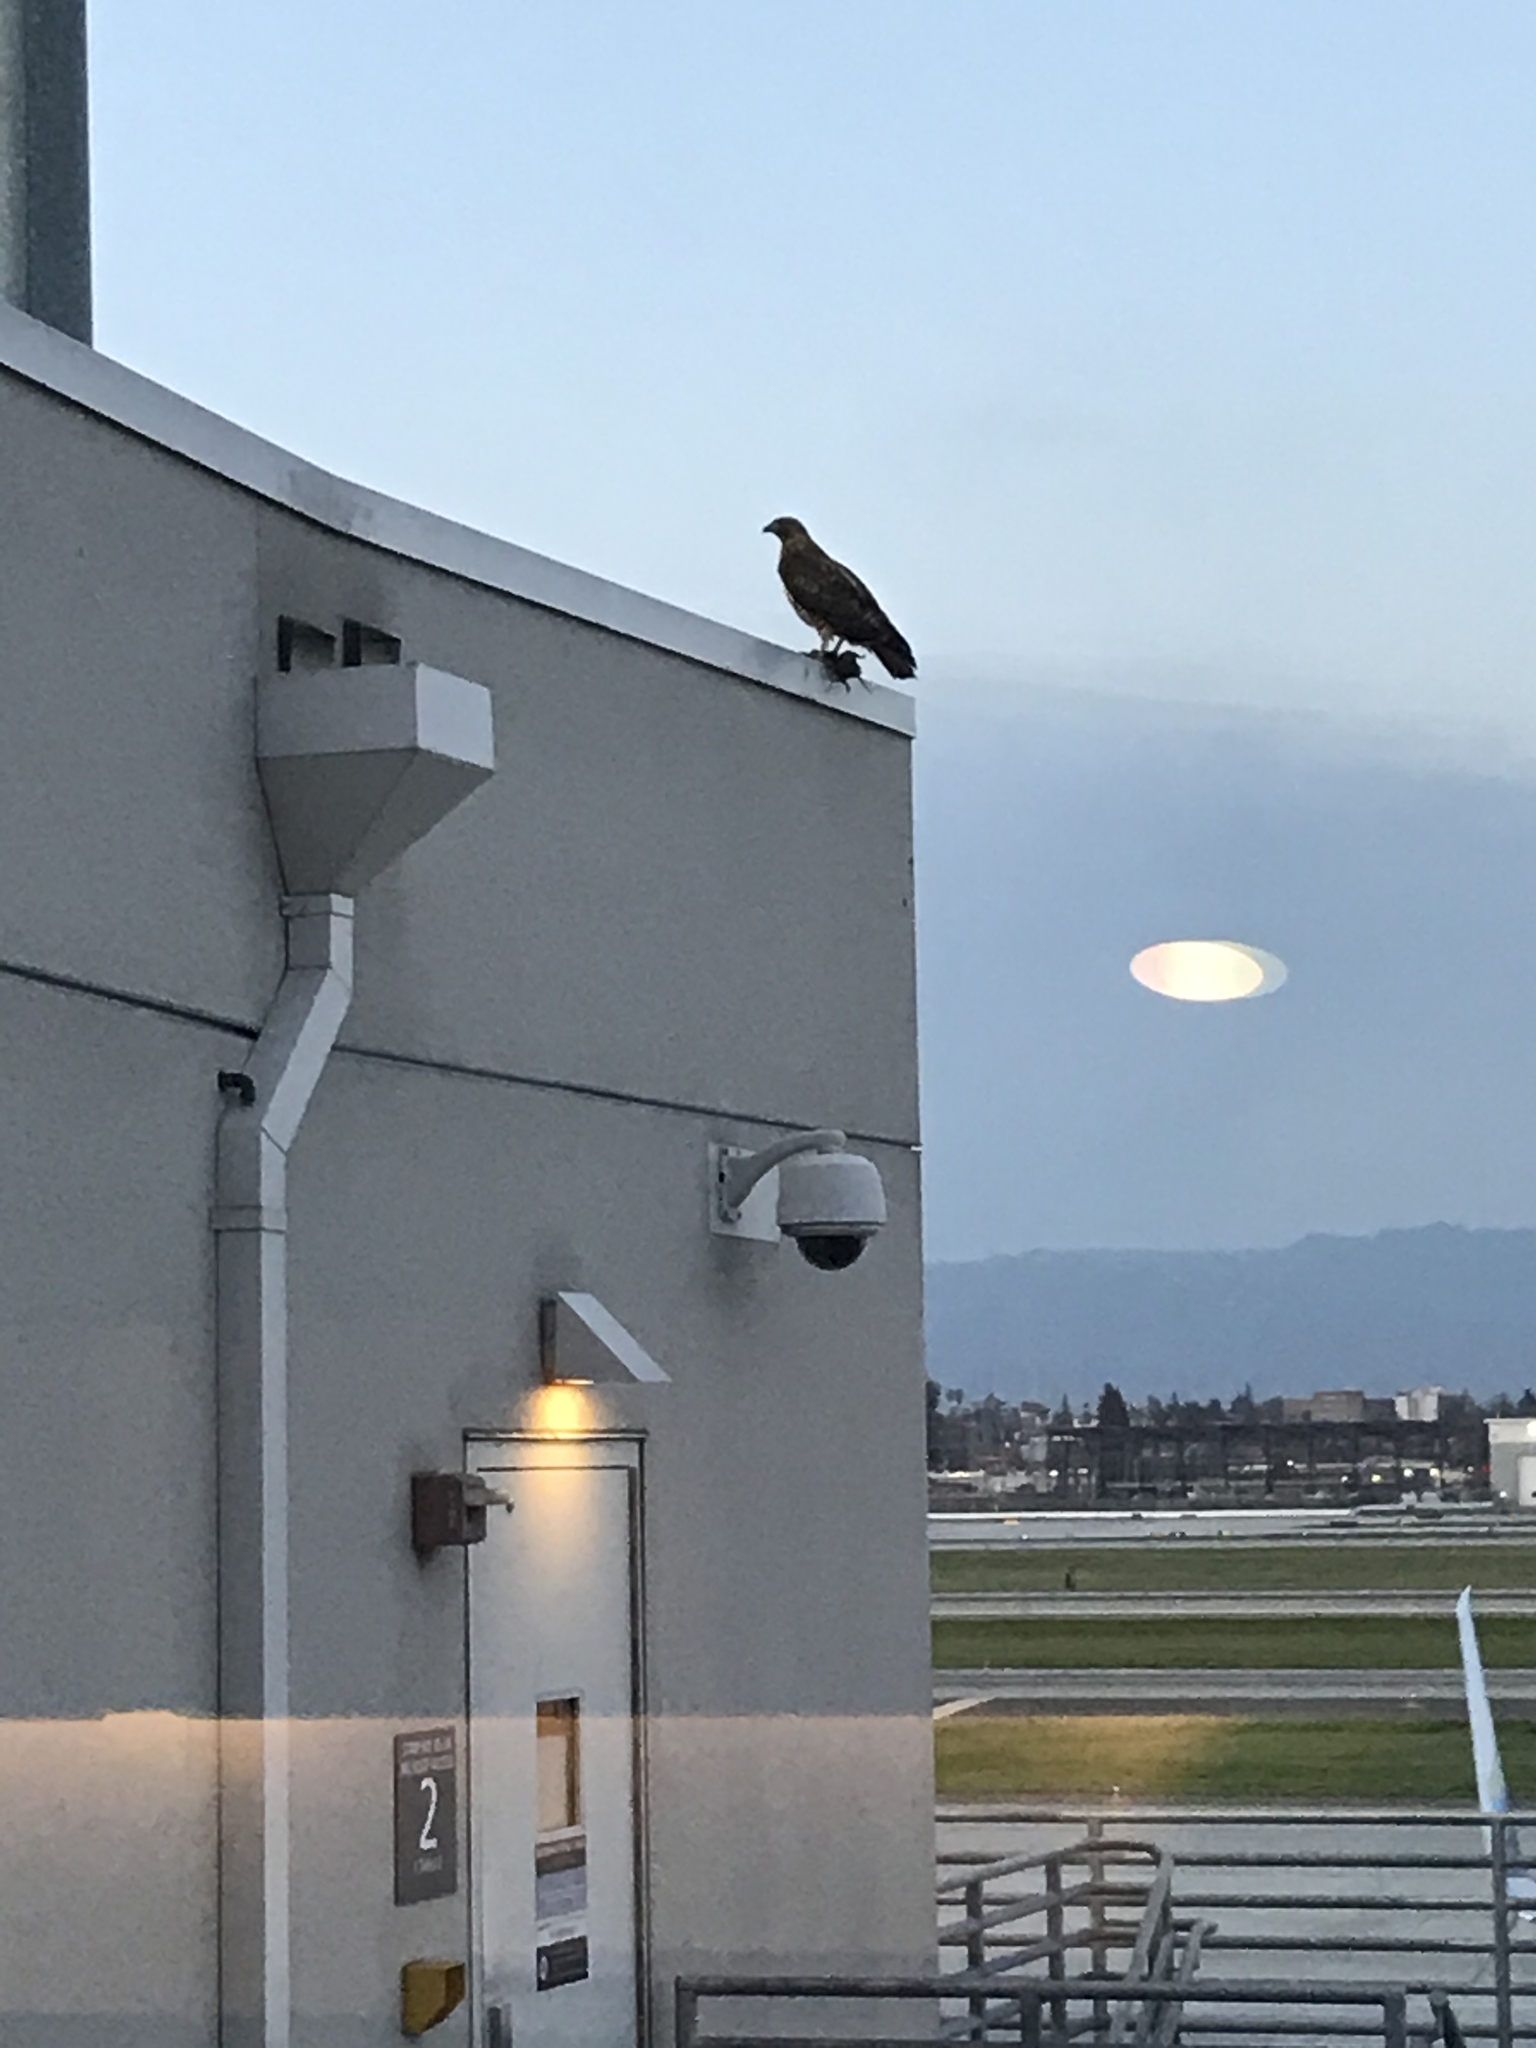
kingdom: Animalia
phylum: Chordata
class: Aves
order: Accipitriformes
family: Accipitridae
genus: Buteo
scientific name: Buteo jamaicensis
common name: Red-tailed hawk
